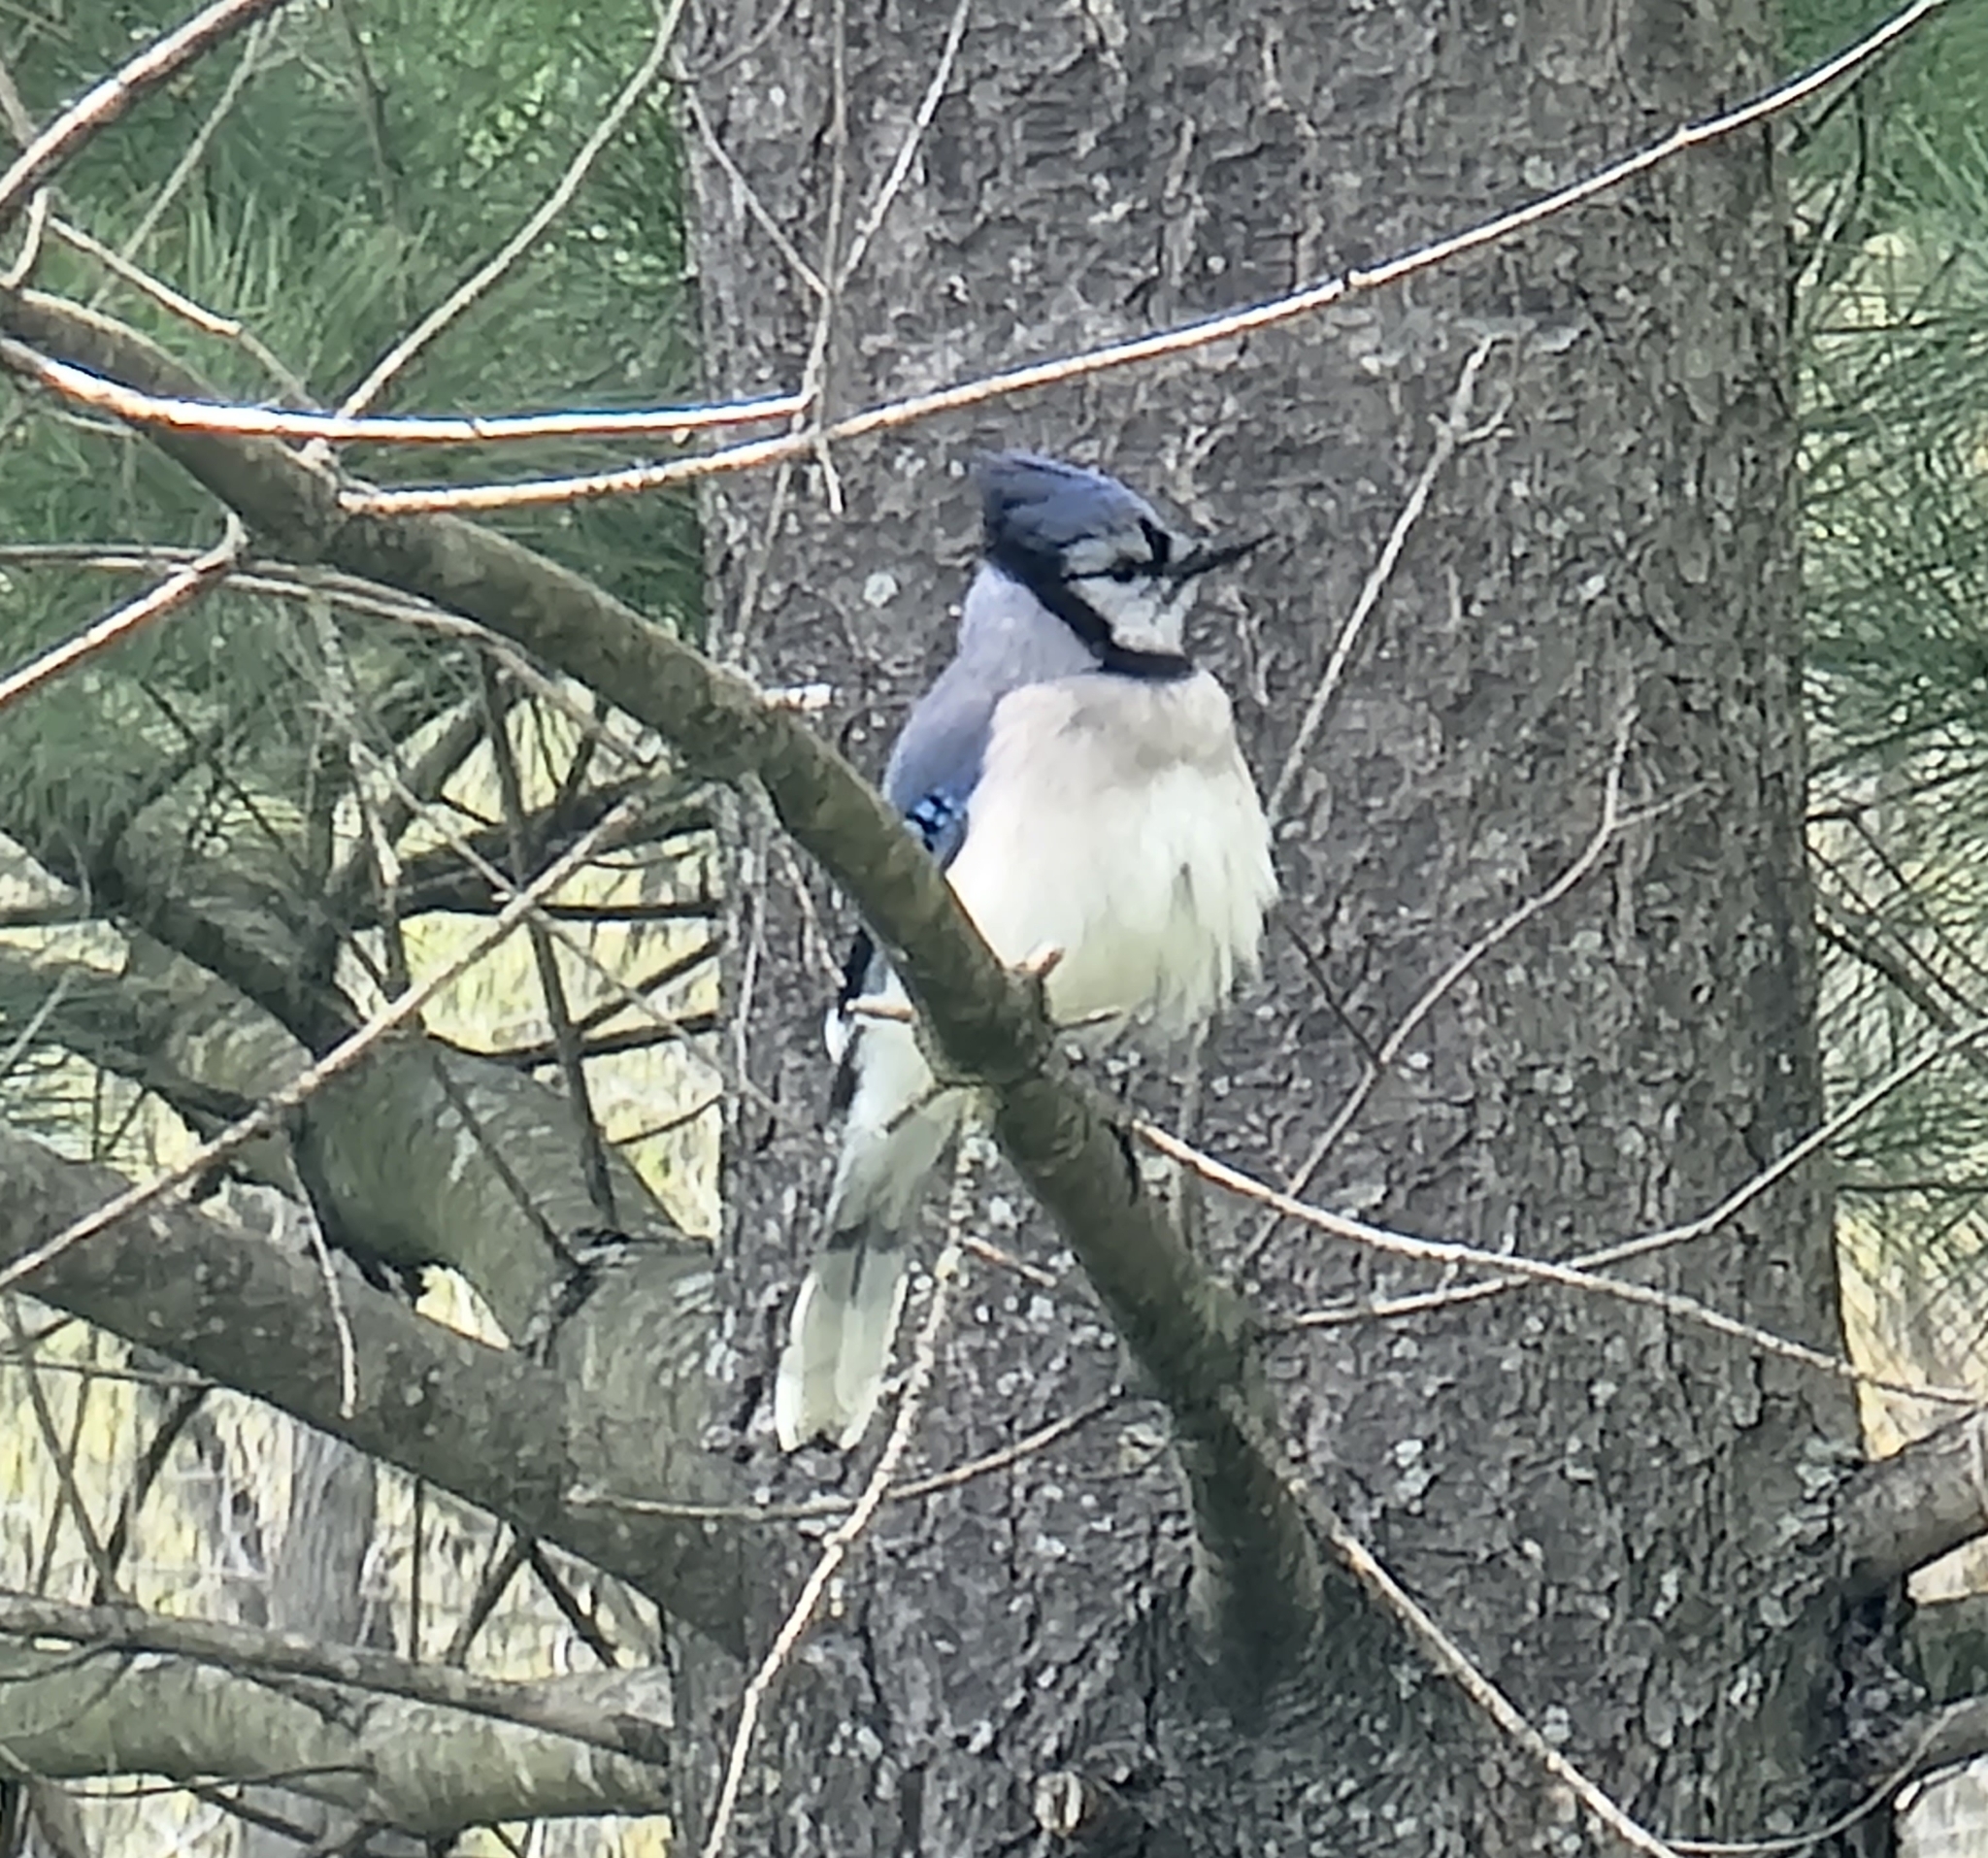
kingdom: Animalia
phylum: Chordata
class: Aves
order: Passeriformes
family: Corvidae
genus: Cyanocitta
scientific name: Cyanocitta cristata
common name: Blue jay
